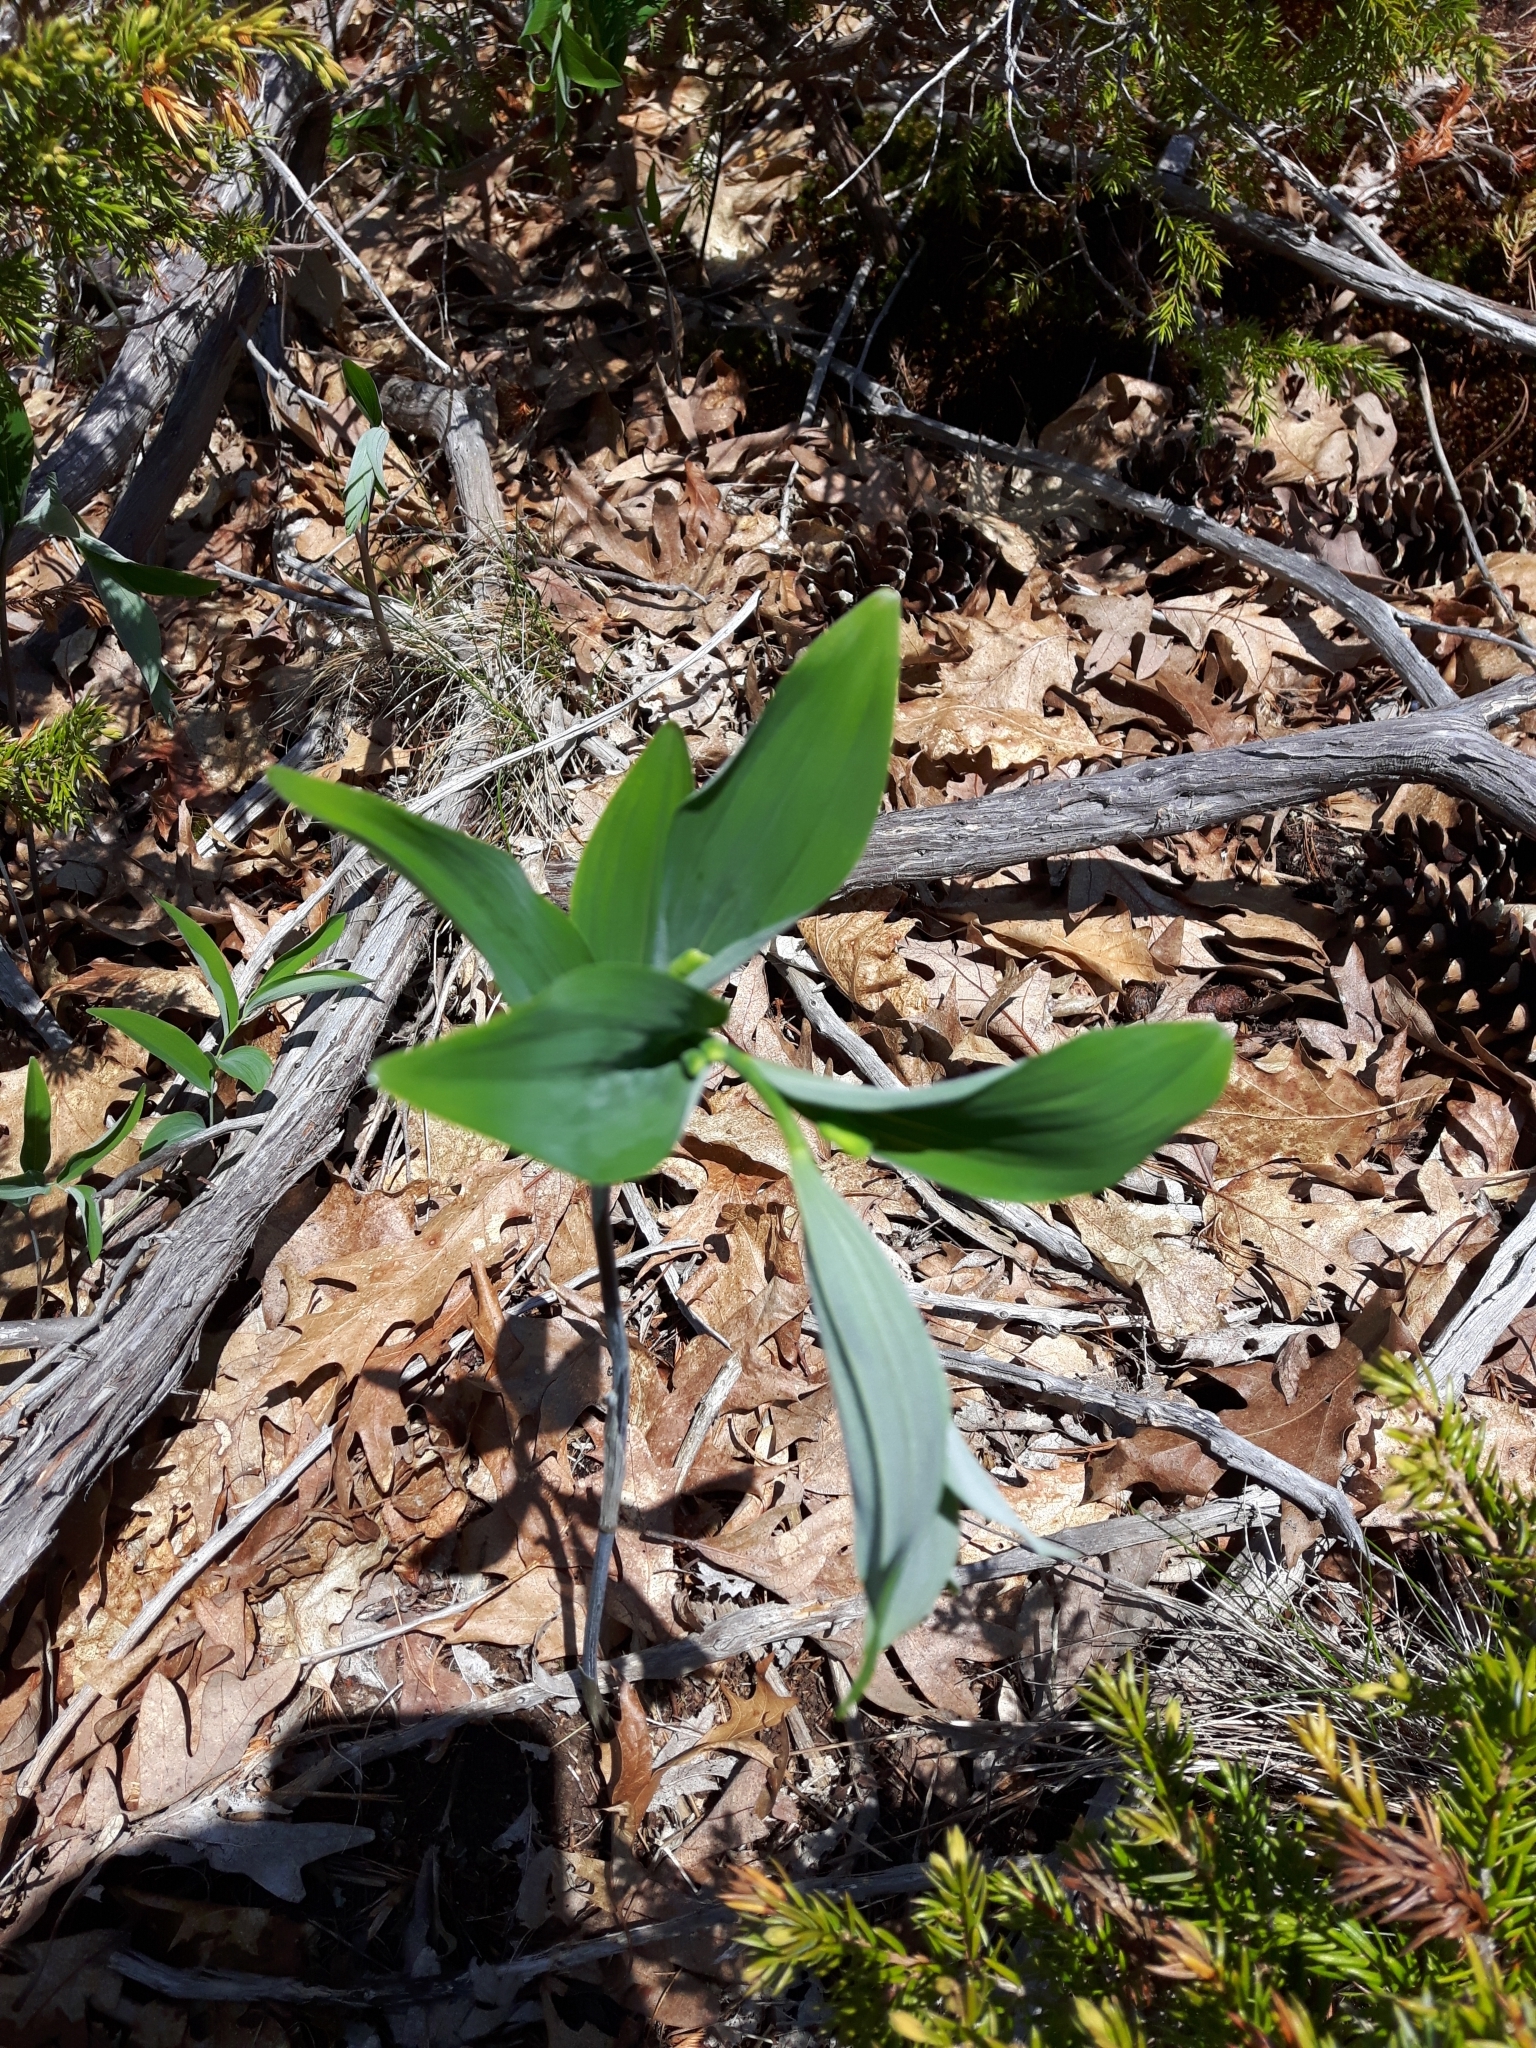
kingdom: Plantae
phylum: Tracheophyta
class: Liliopsida
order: Asparagales
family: Asparagaceae
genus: Polygonatum
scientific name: Polygonatum pubescens
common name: Downy solomon's seal
